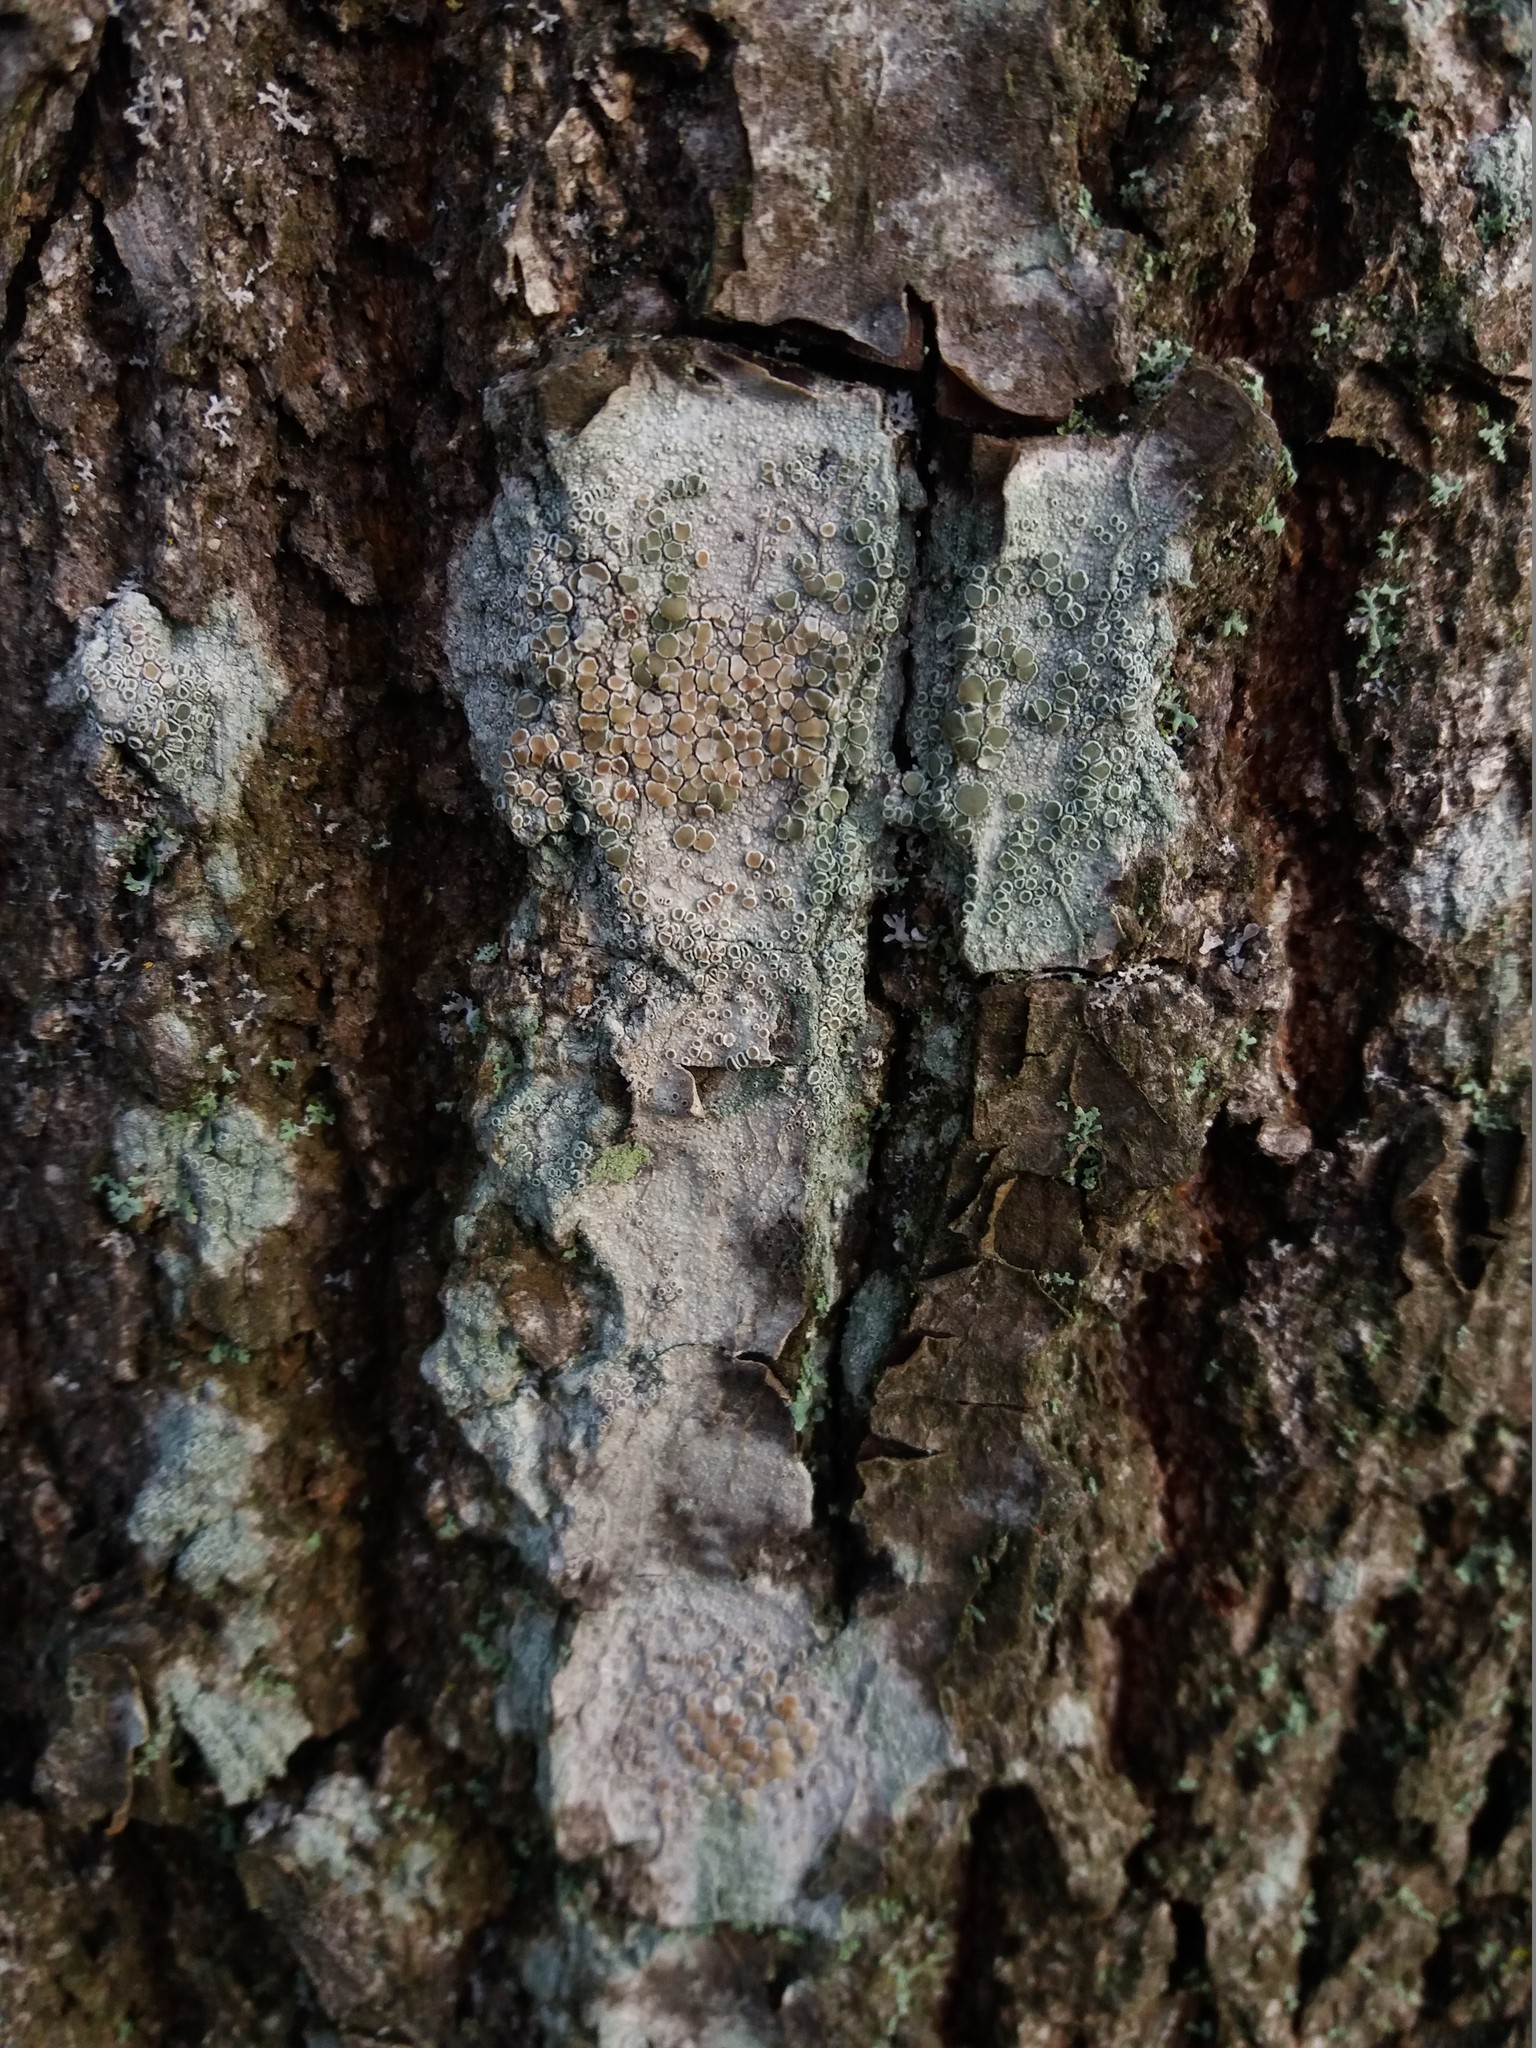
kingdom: Fungi
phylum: Ascomycota
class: Lecanoromycetes
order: Lecanorales
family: Lecanoraceae
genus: Lecanora
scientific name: Lecanora
